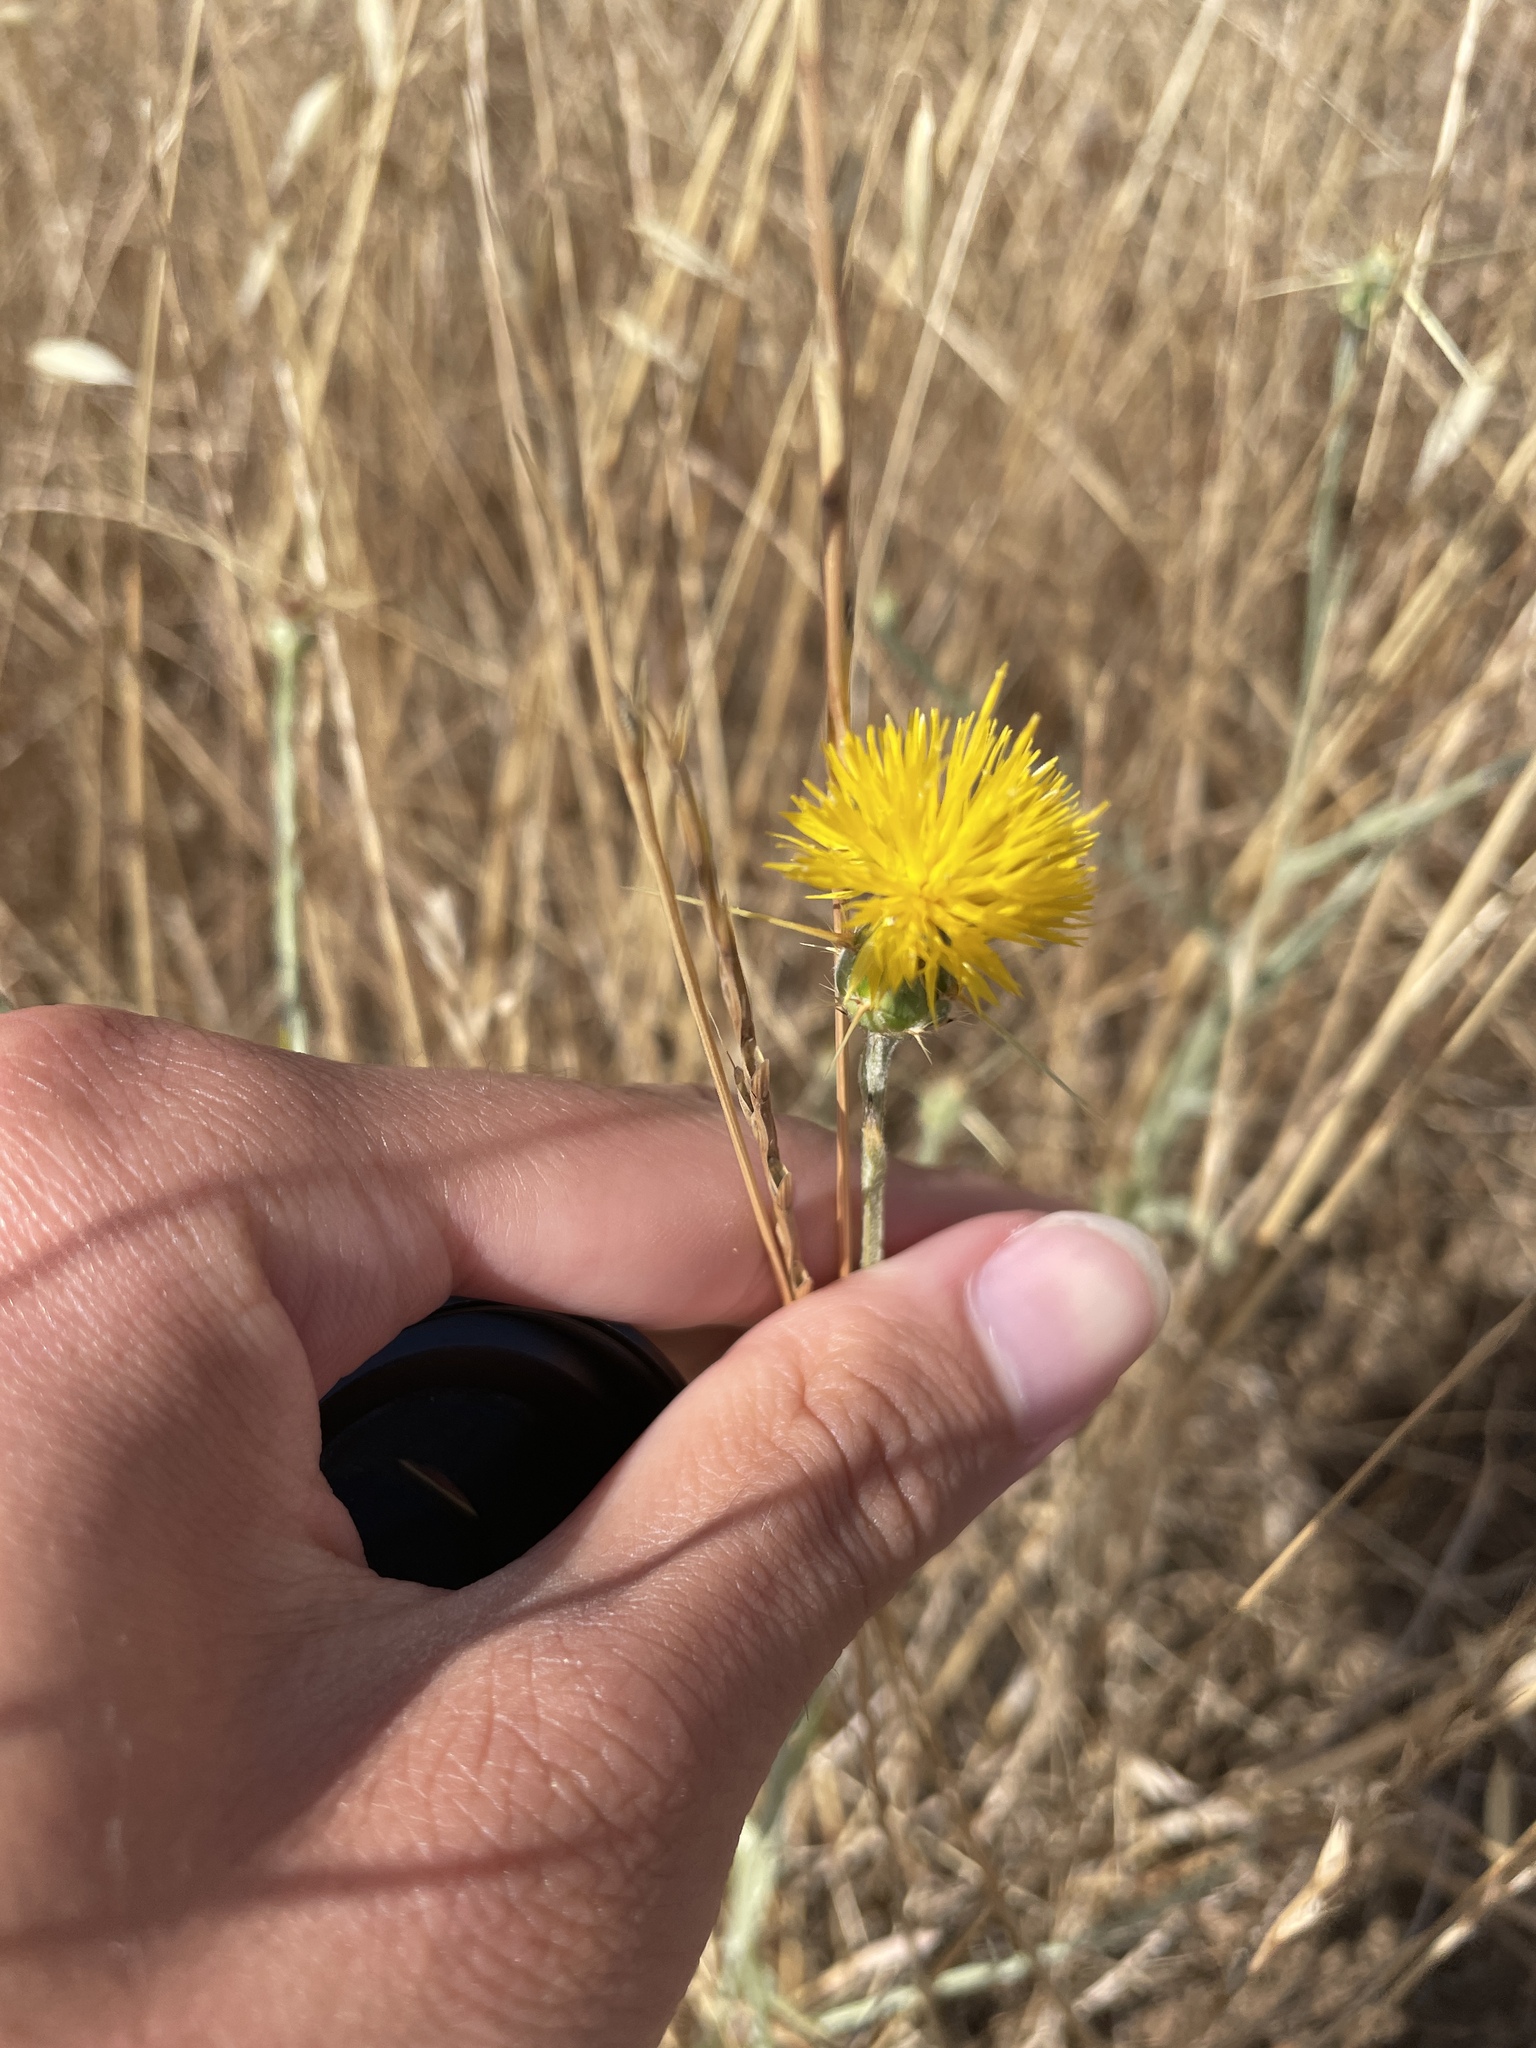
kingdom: Plantae
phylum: Tracheophyta
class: Magnoliopsida
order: Asterales
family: Asteraceae
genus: Centaurea
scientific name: Centaurea solstitialis
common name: Yellow star-thistle
